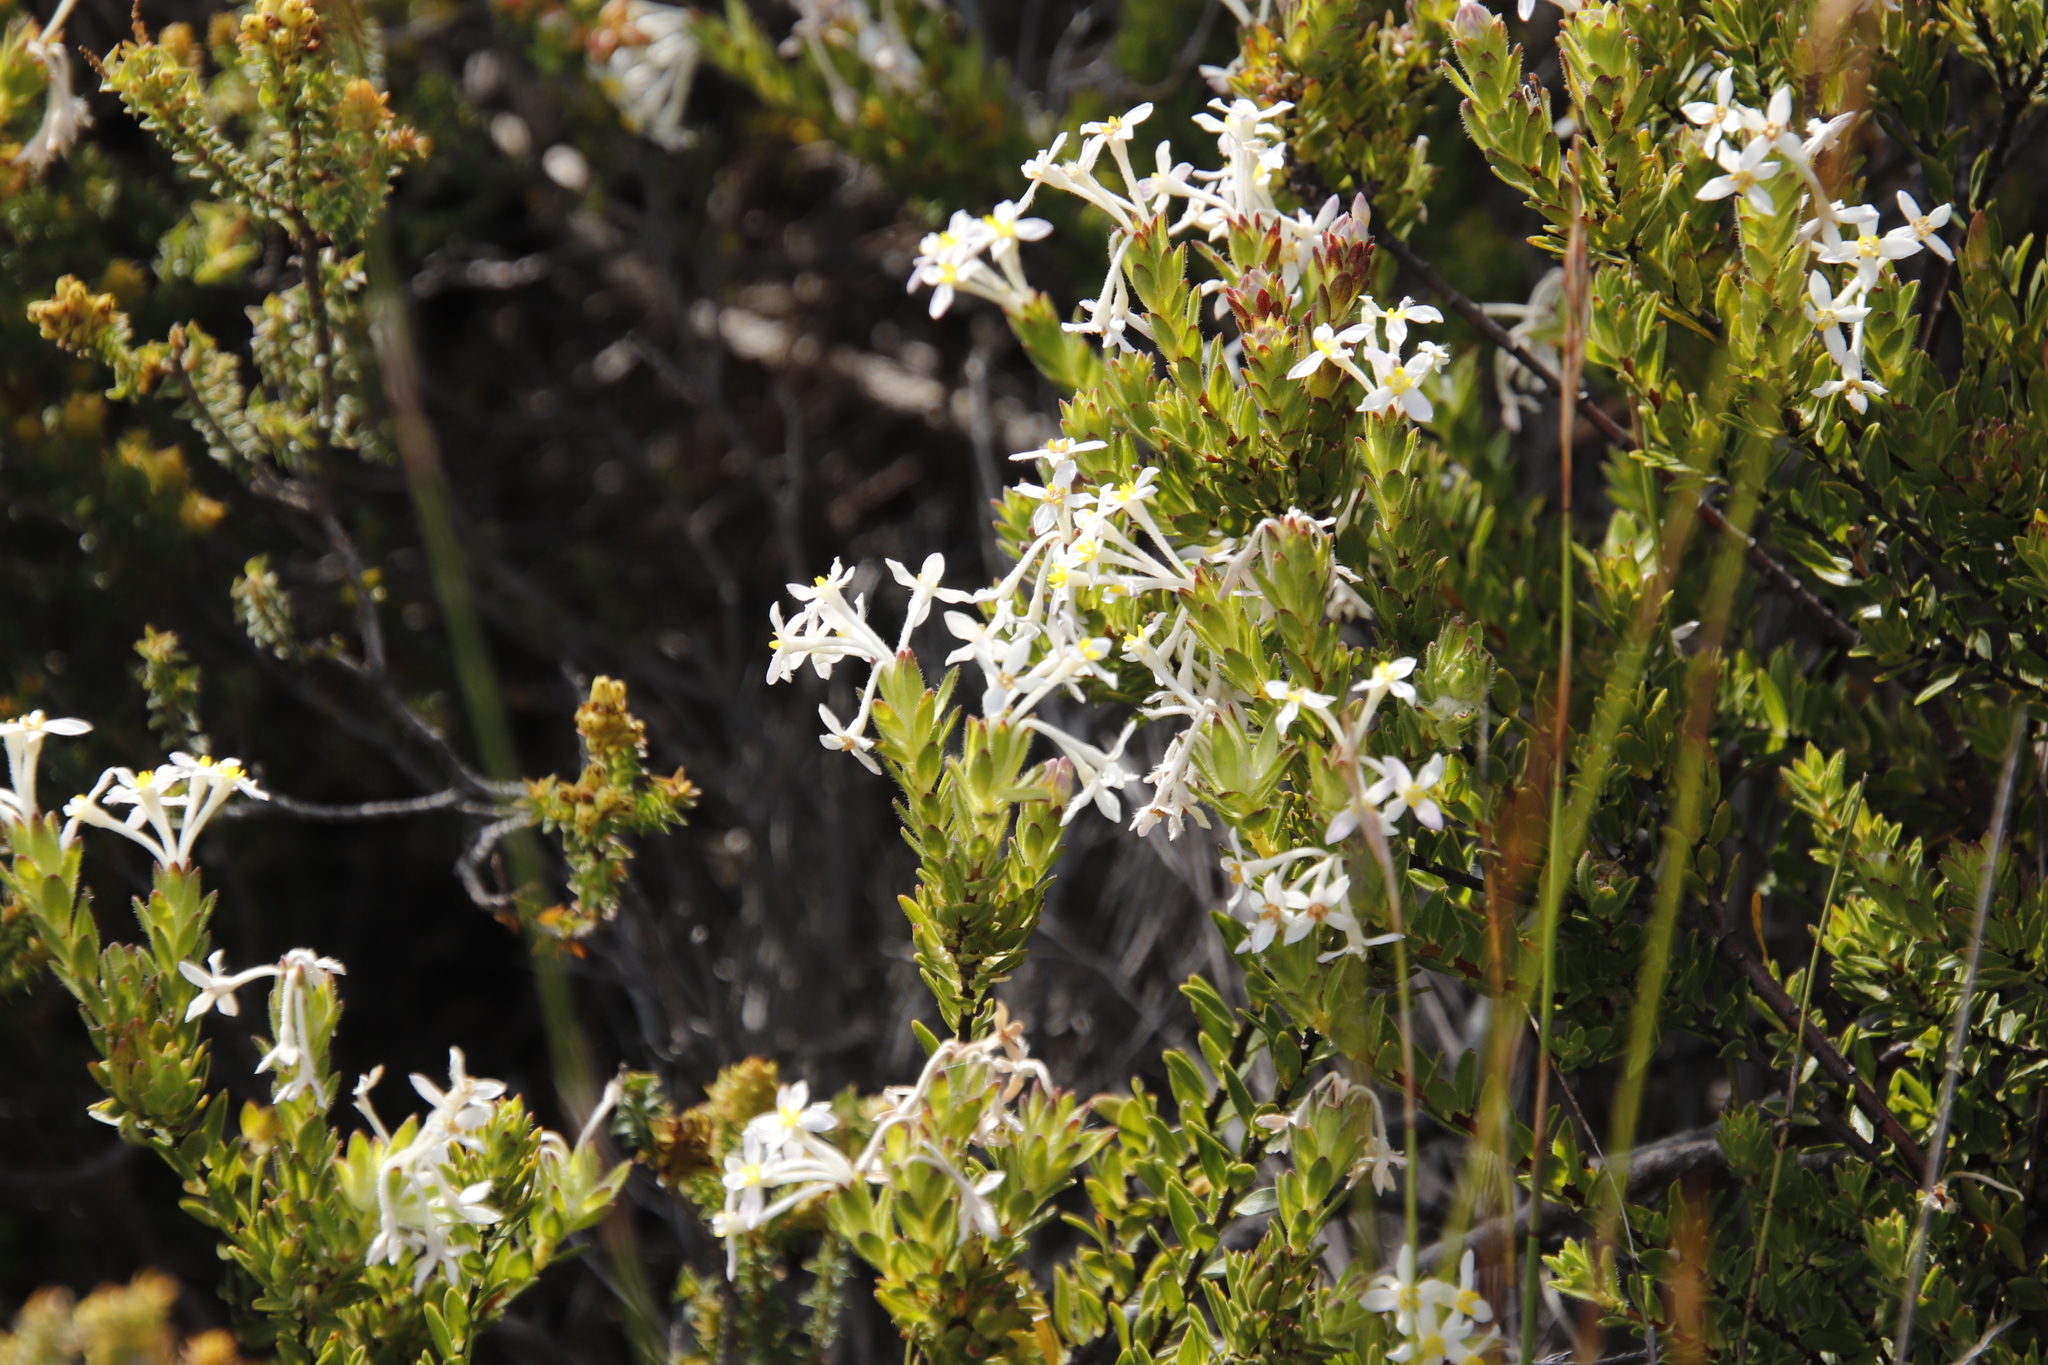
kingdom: Plantae
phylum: Tracheophyta
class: Magnoliopsida
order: Malvales
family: Thymelaeaceae
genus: Gnidia
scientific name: Gnidia tomentosa
